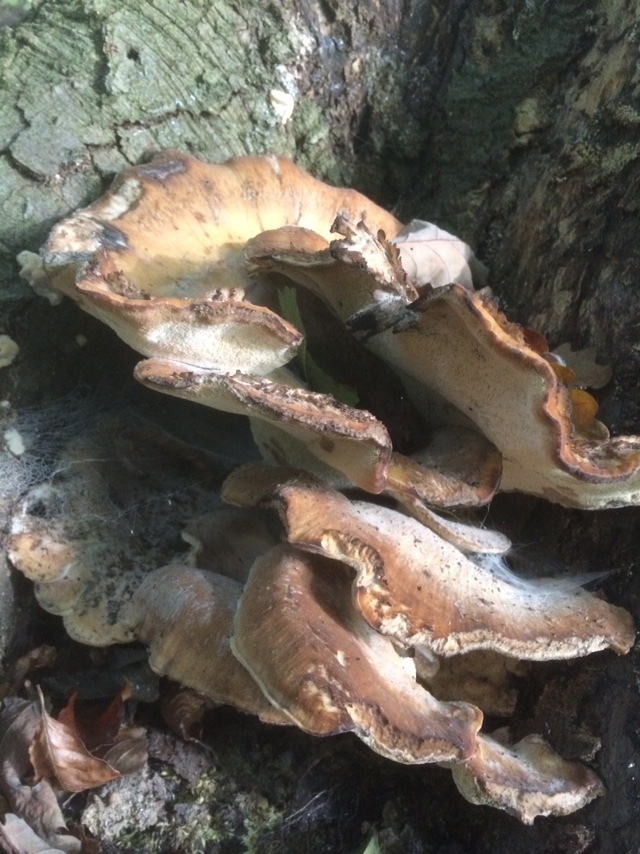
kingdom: Fungi
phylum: Basidiomycota
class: Agaricomycetes
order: Polyporales
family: Meripilaceae
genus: Meripilus
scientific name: Meripilus giganteus
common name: Giant polypore
